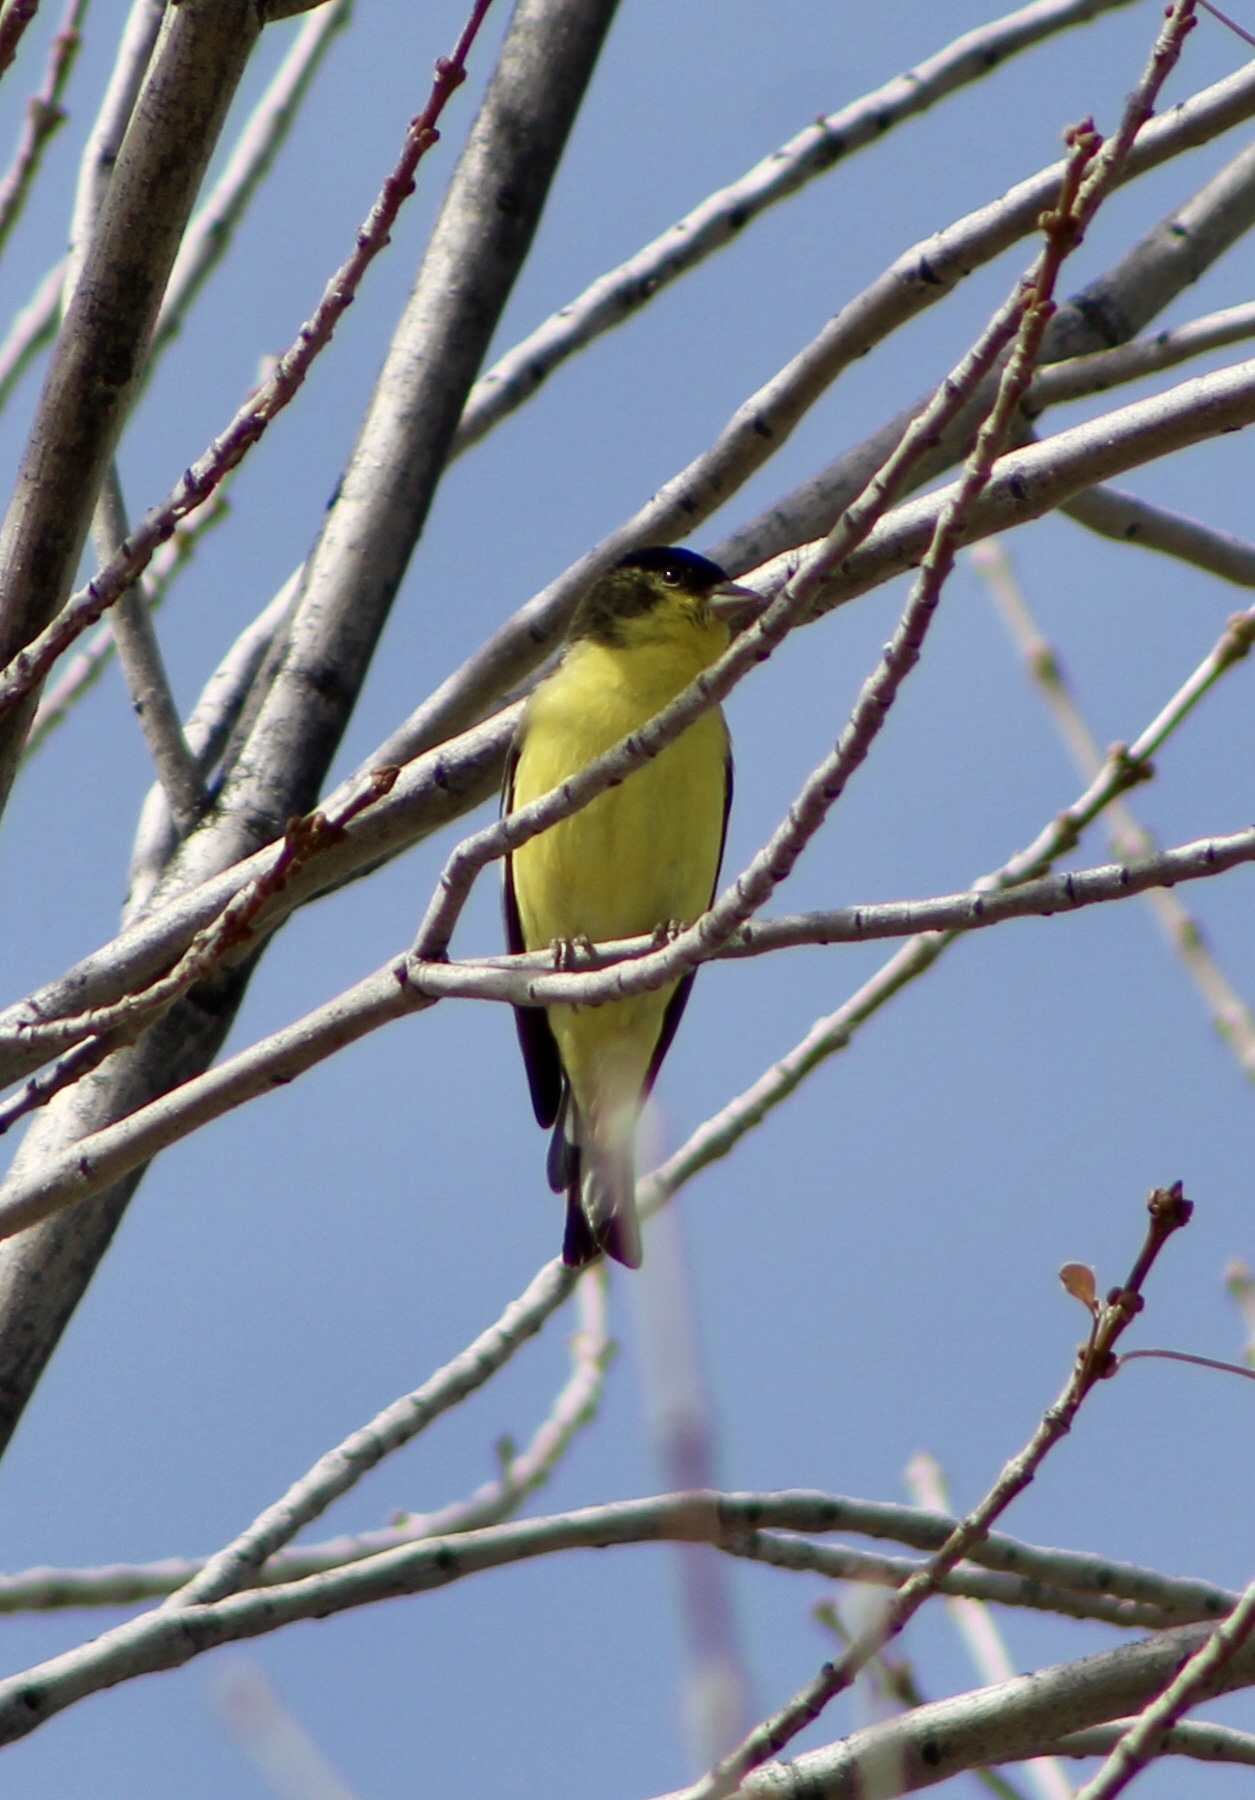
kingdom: Animalia
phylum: Chordata
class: Aves
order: Passeriformes
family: Fringillidae
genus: Spinus
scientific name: Spinus psaltria
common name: Lesser goldfinch
